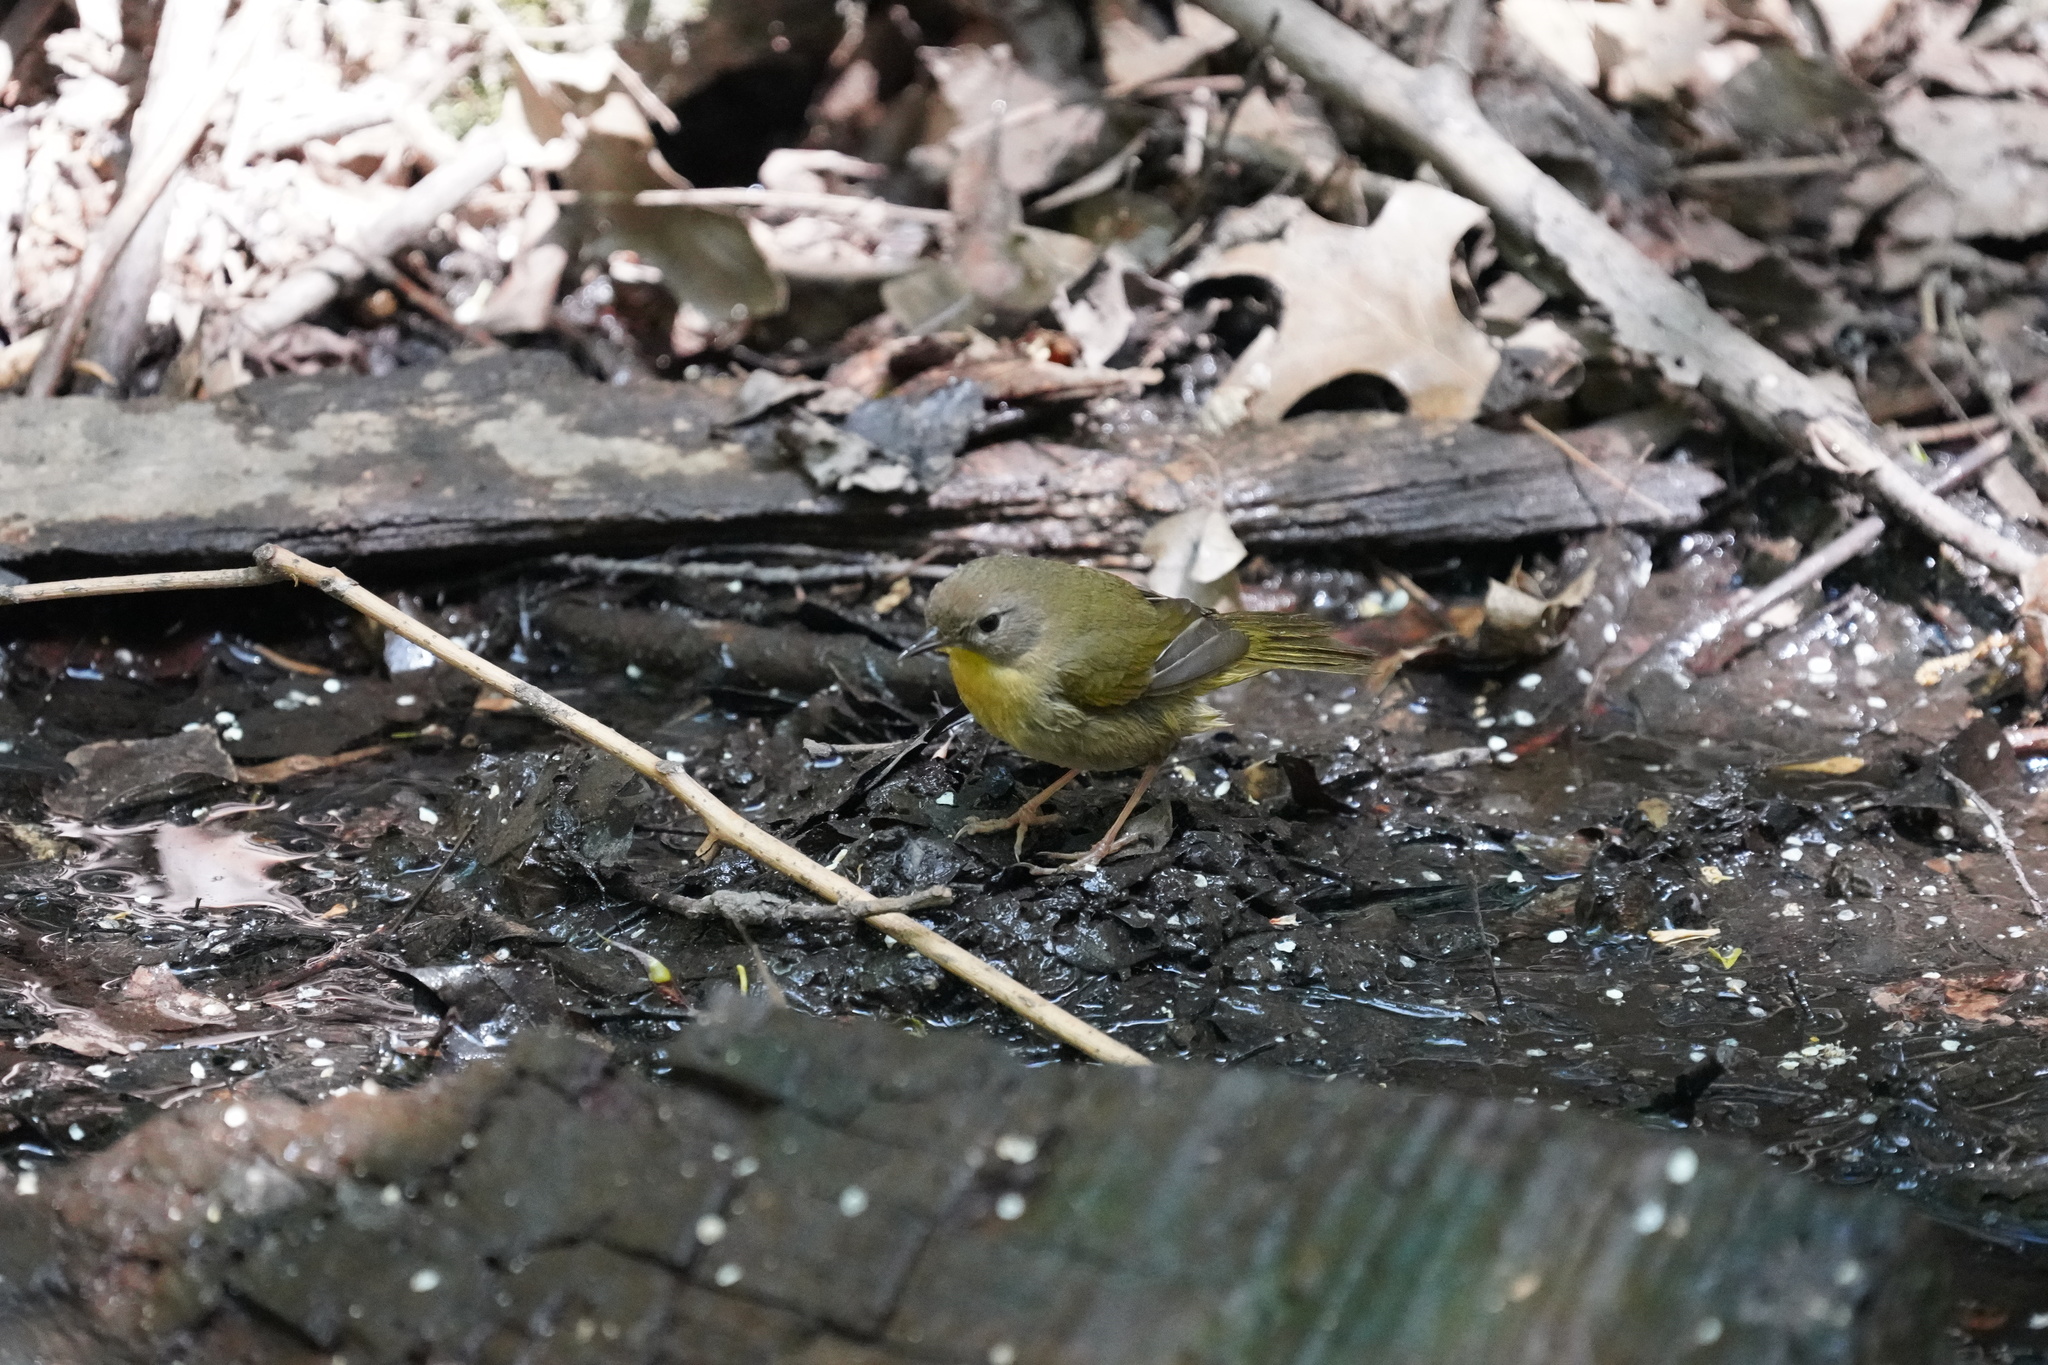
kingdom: Animalia
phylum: Chordata
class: Aves
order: Passeriformes
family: Parulidae
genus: Geothlypis
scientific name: Geothlypis trichas
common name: Common yellowthroat
